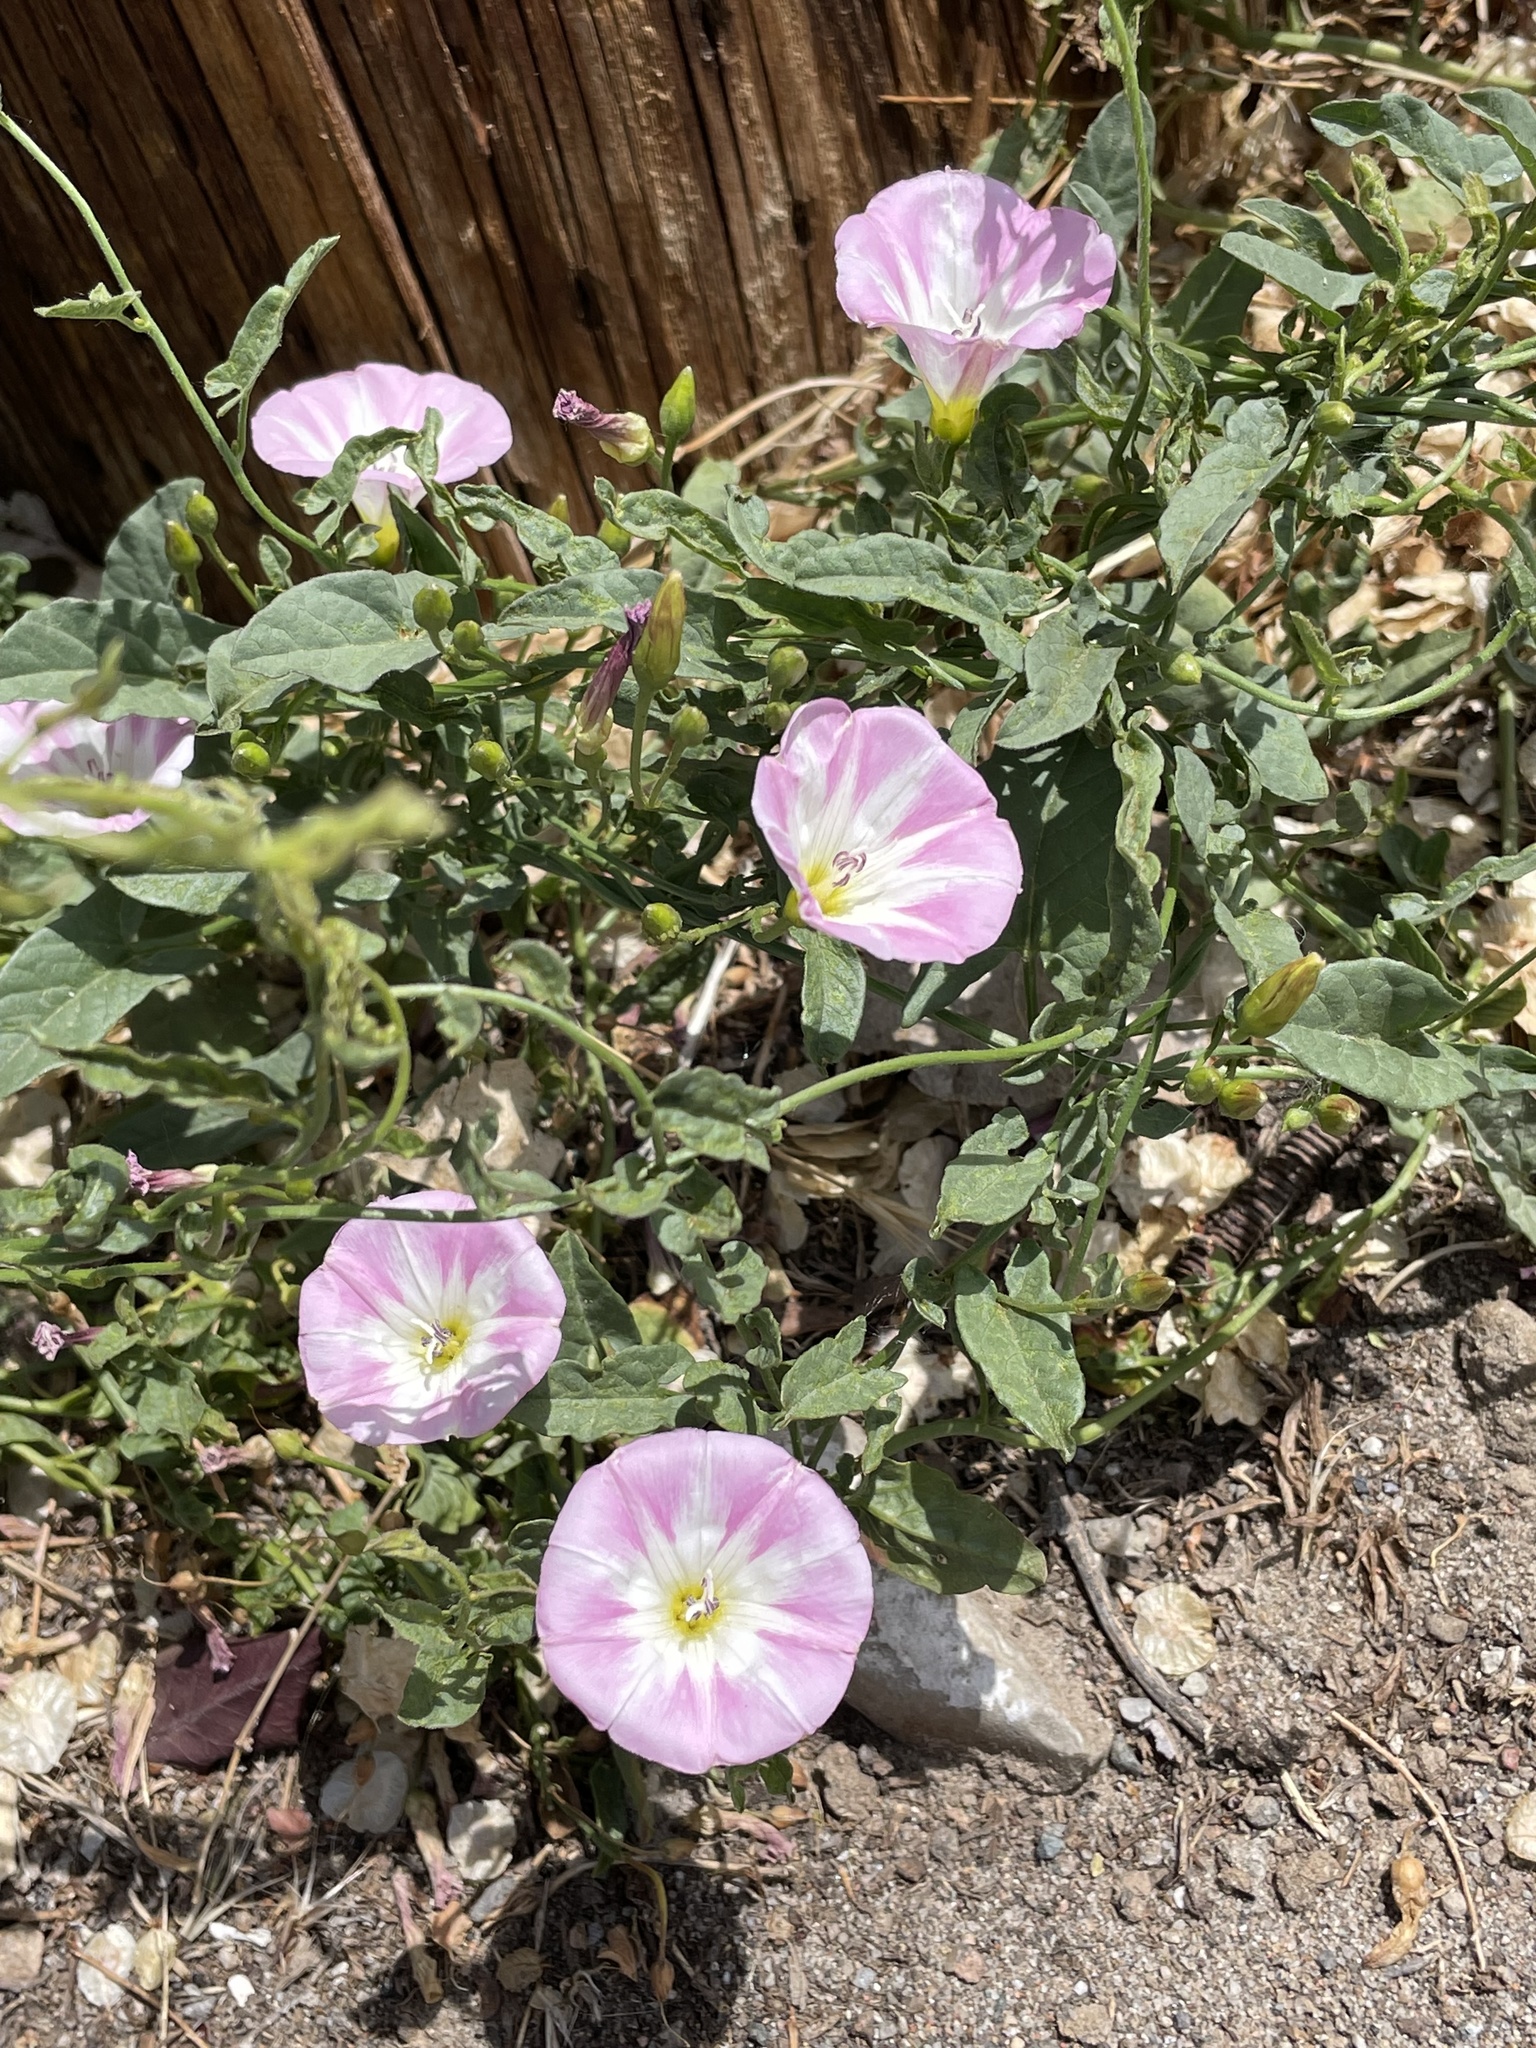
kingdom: Plantae
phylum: Tracheophyta
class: Magnoliopsida
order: Solanales
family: Convolvulaceae
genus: Convolvulus
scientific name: Convolvulus arvensis
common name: Field bindweed
